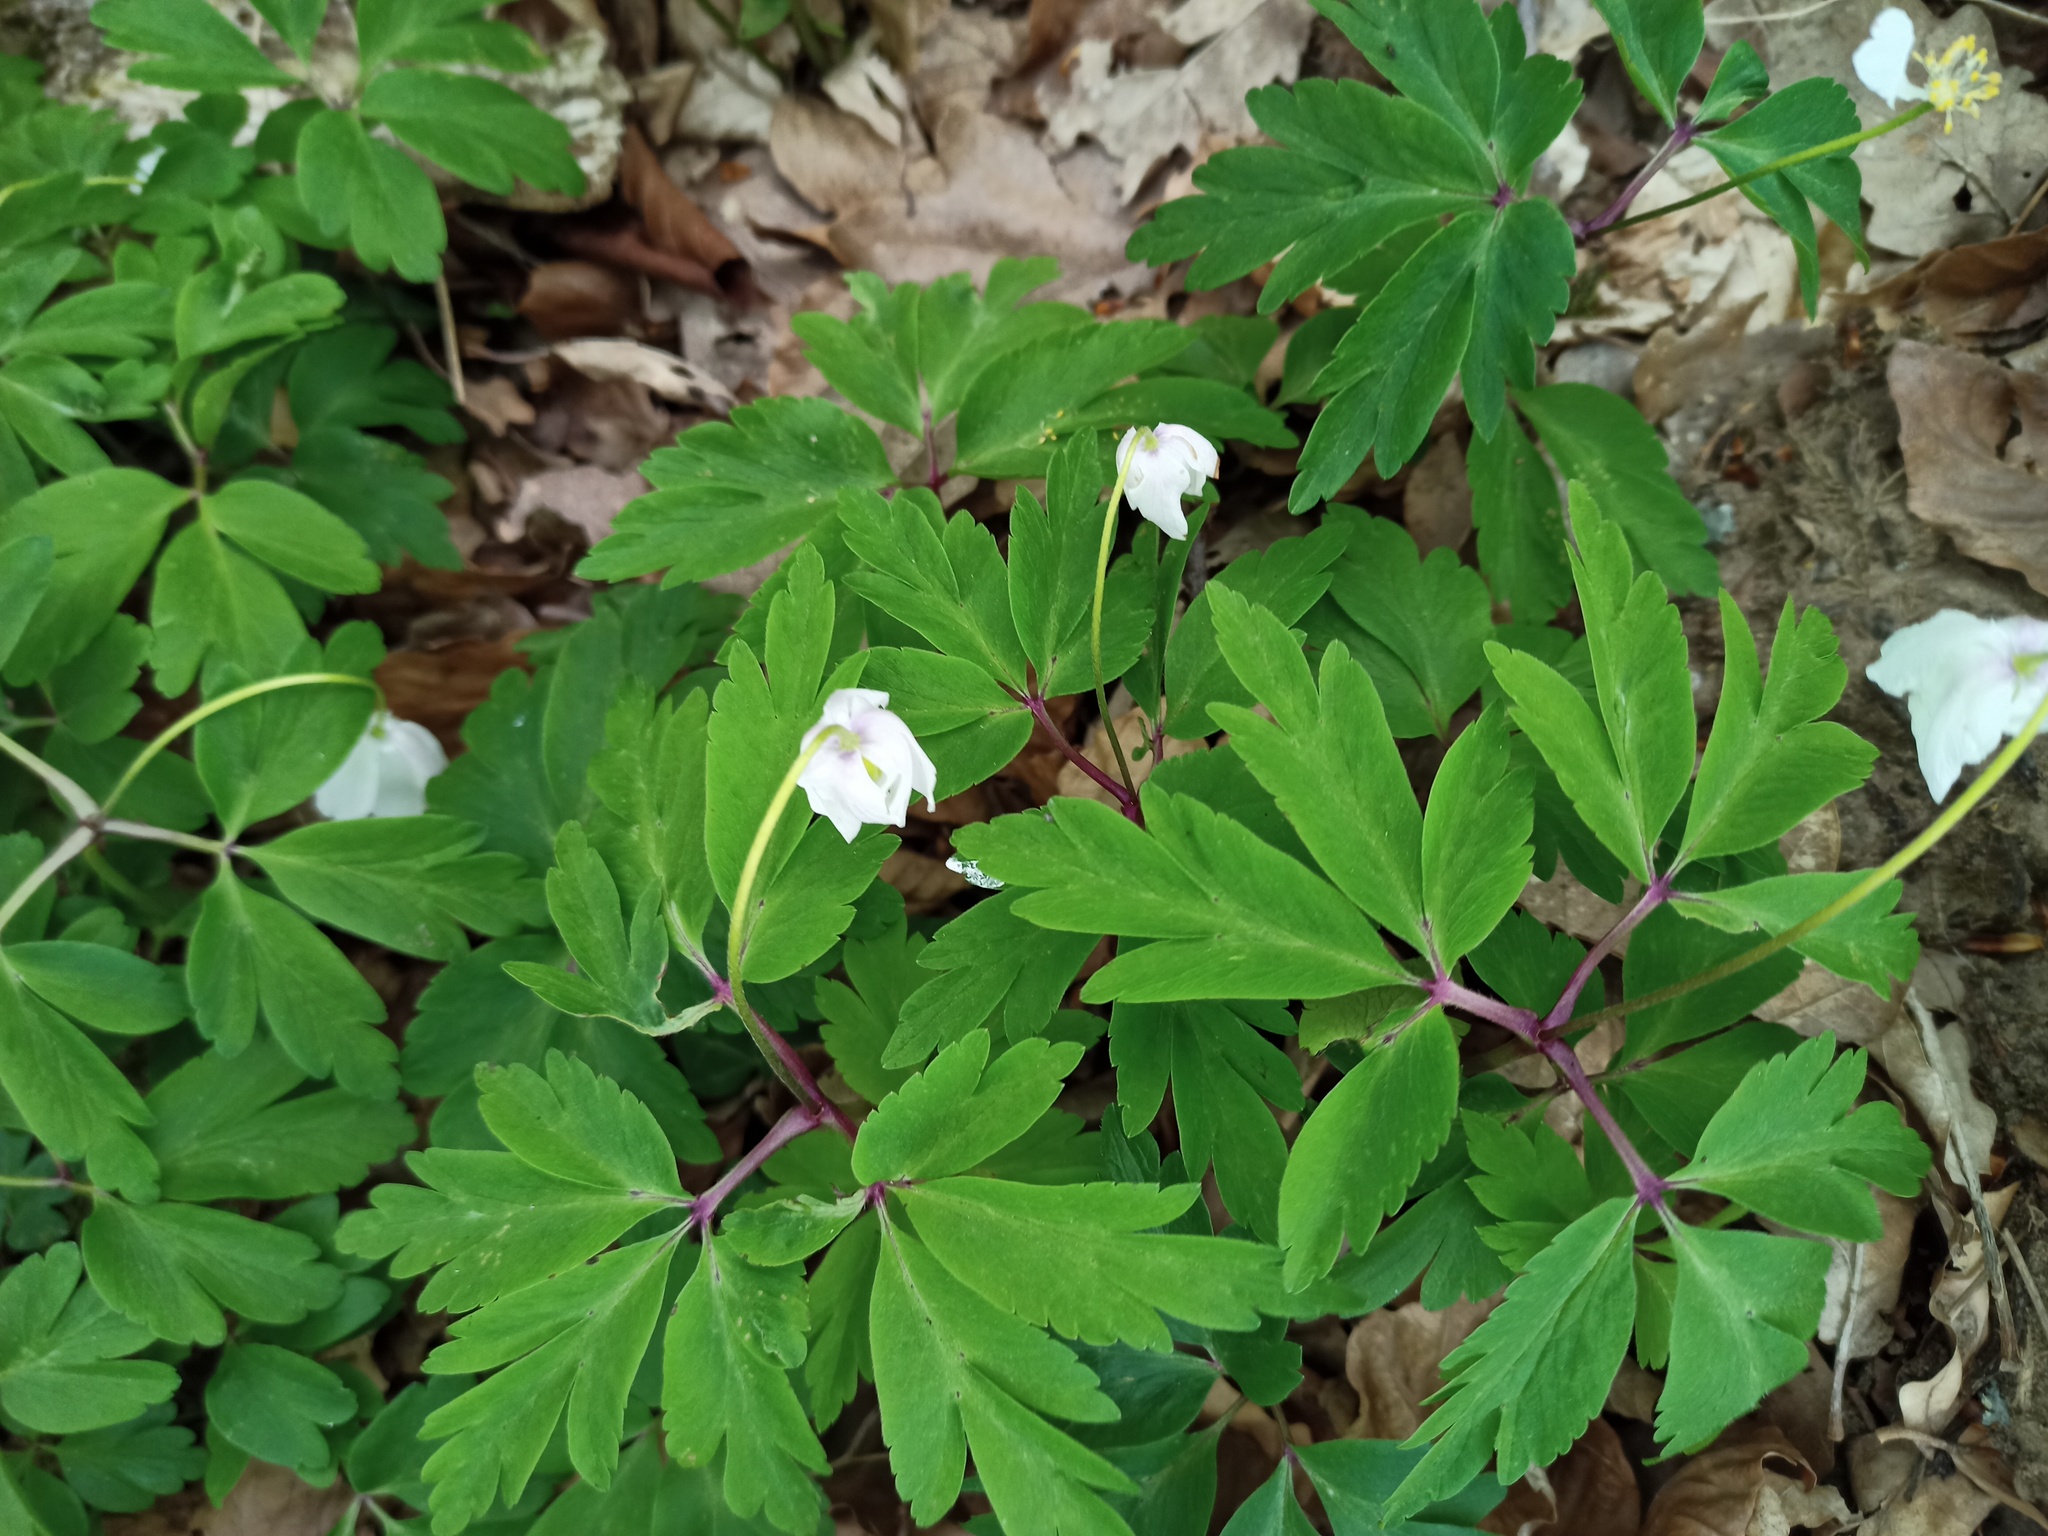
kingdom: Plantae
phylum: Tracheophyta
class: Magnoliopsida
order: Ranunculales
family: Ranunculaceae
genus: Anemone
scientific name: Anemone nemorosa
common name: Wood anemone
